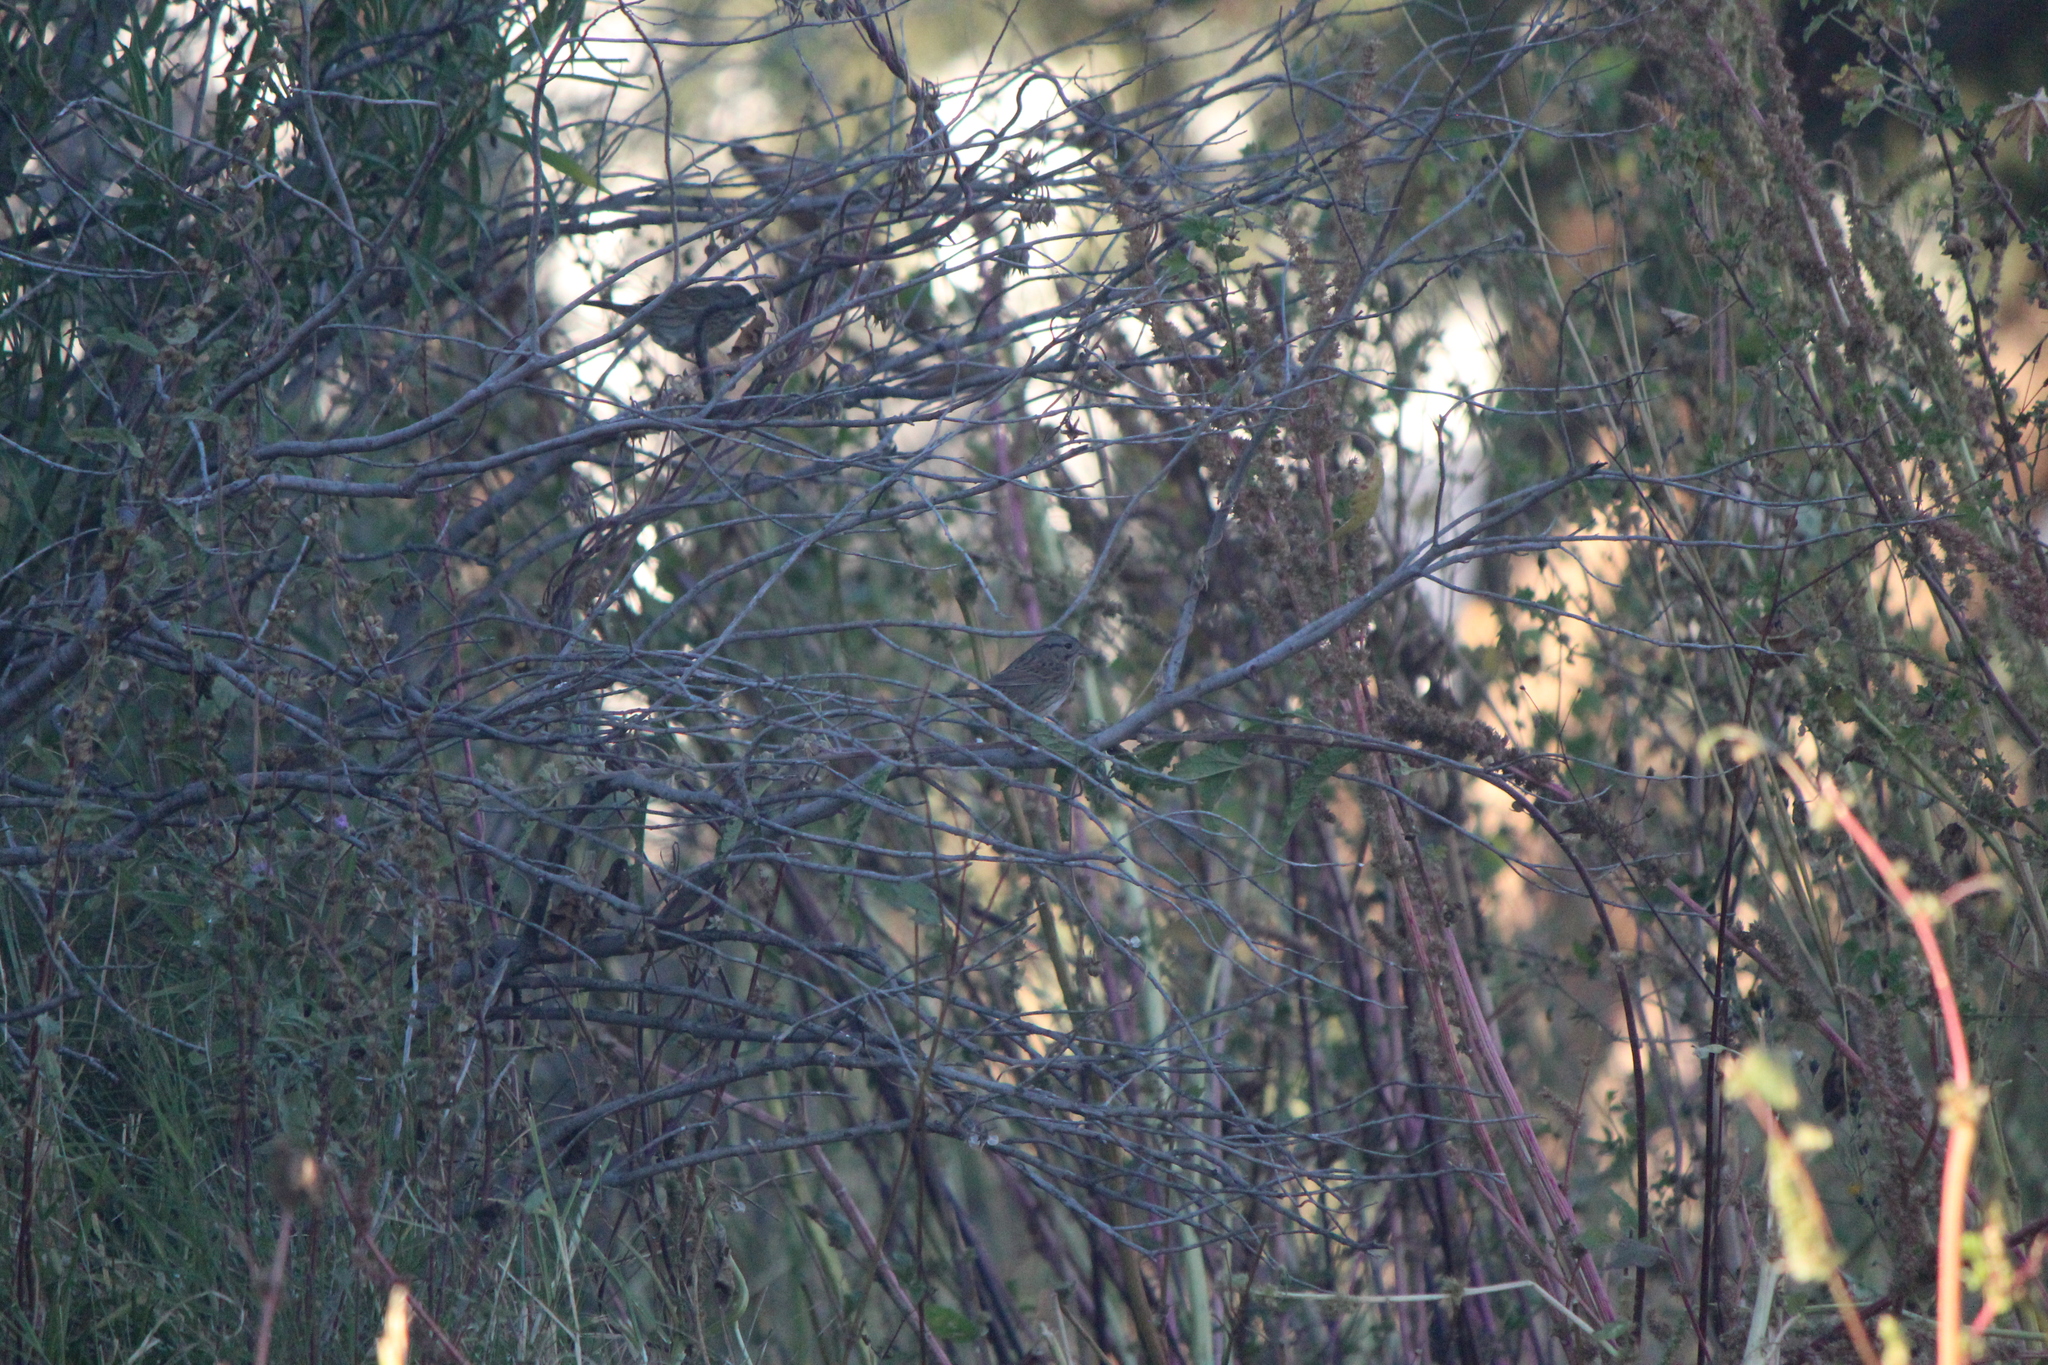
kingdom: Animalia
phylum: Chordata
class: Aves
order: Passeriformes
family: Passerellidae
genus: Melospiza
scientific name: Melospiza lincolnii
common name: Lincoln's sparrow
